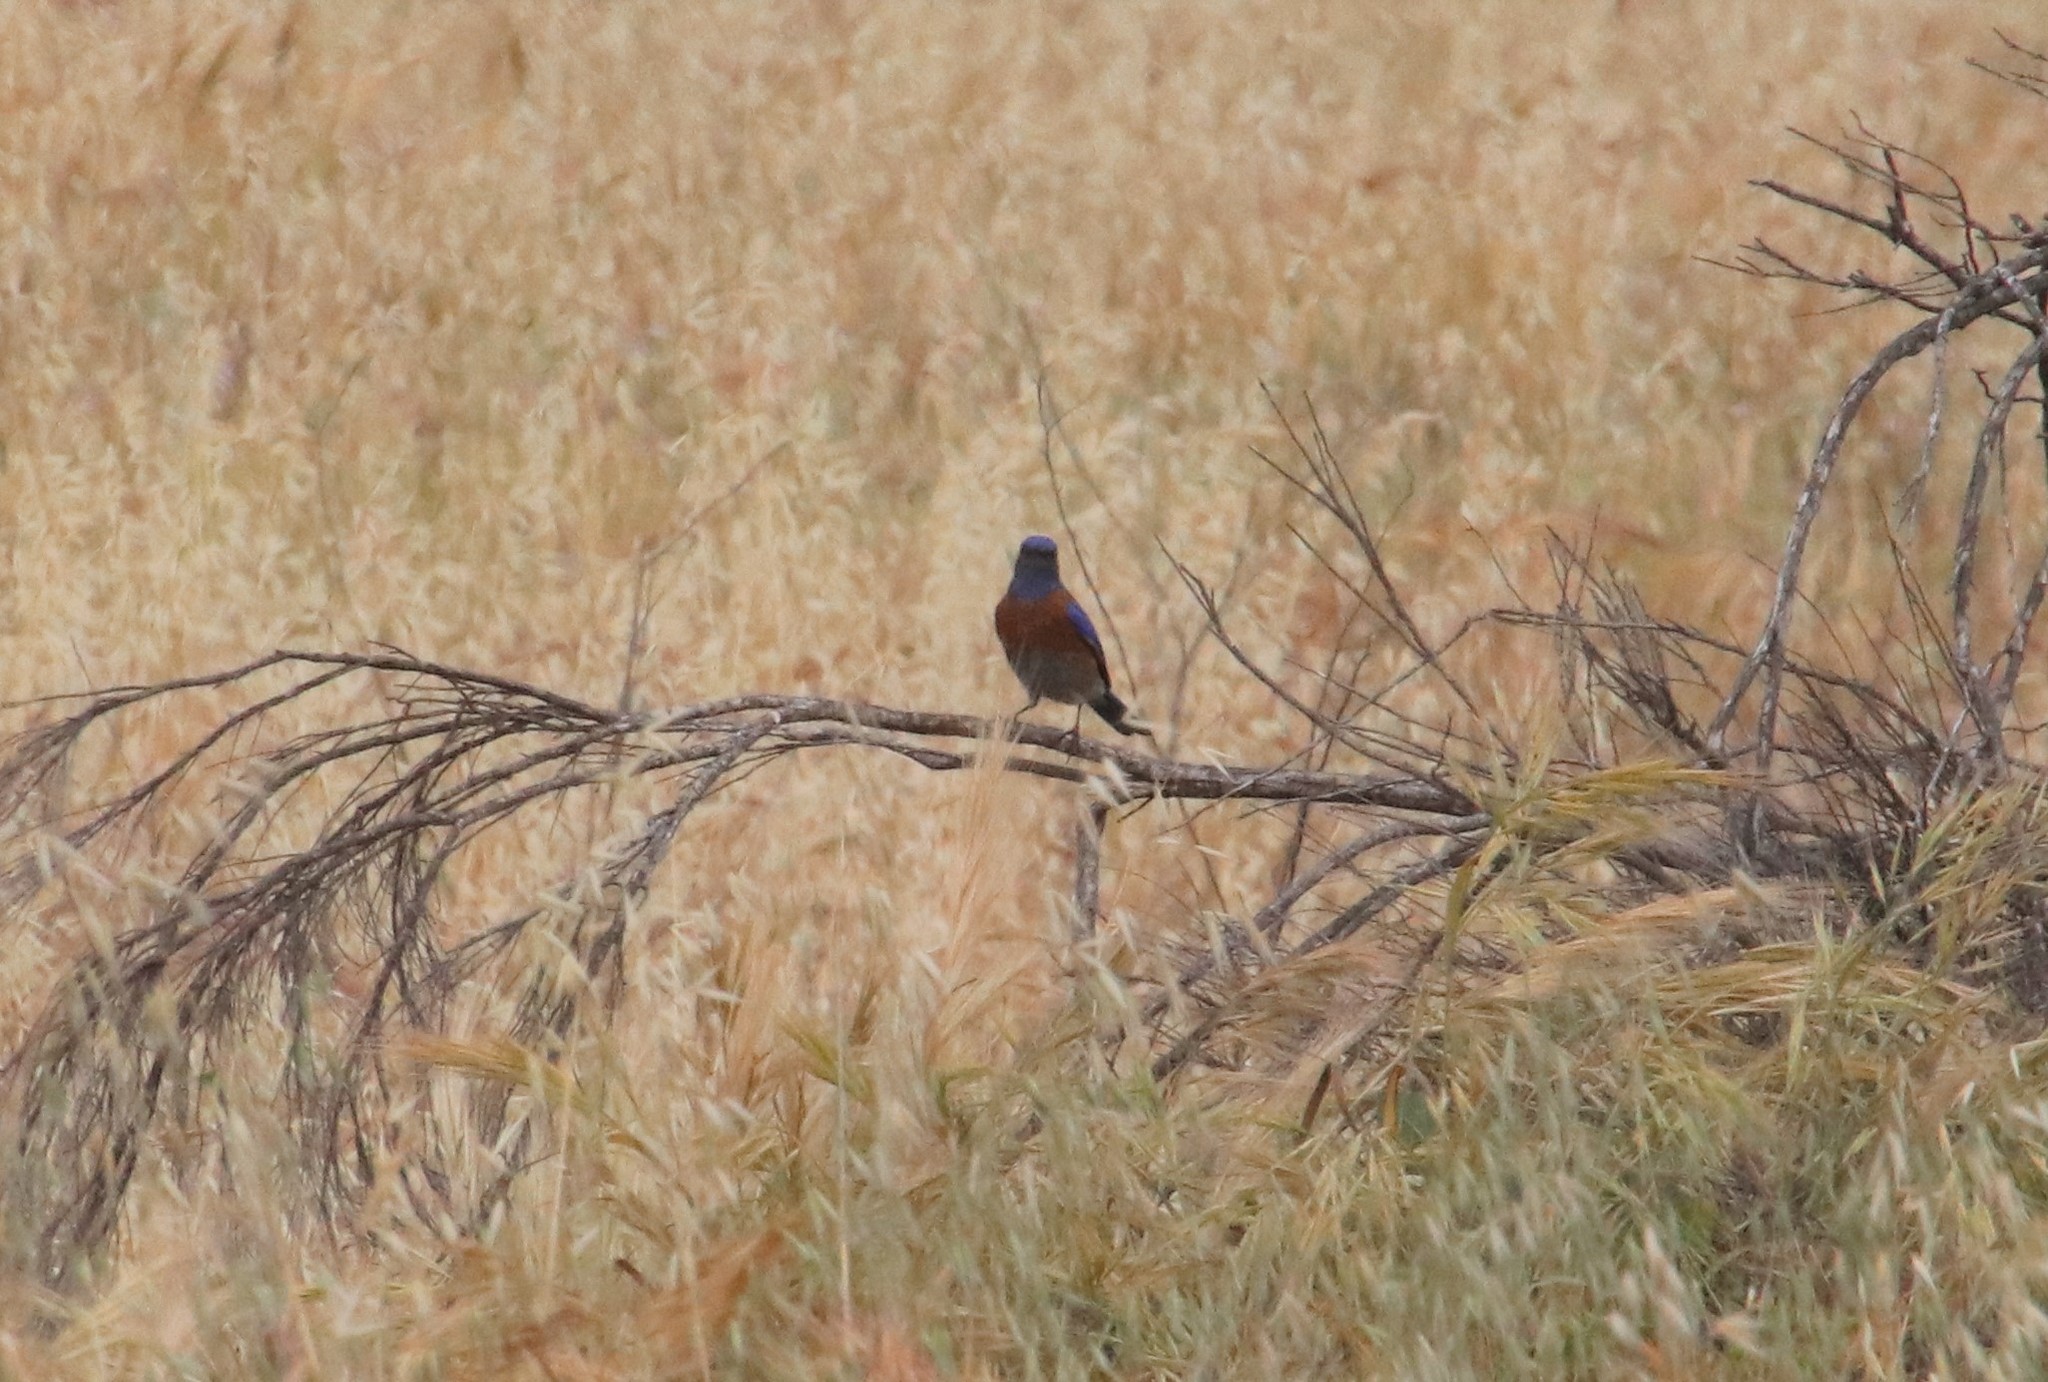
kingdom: Animalia
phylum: Chordata
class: Aves
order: Passeriformes
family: Turdidae
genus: Sialia
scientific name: Sialia mexicana
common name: Western bluebird
